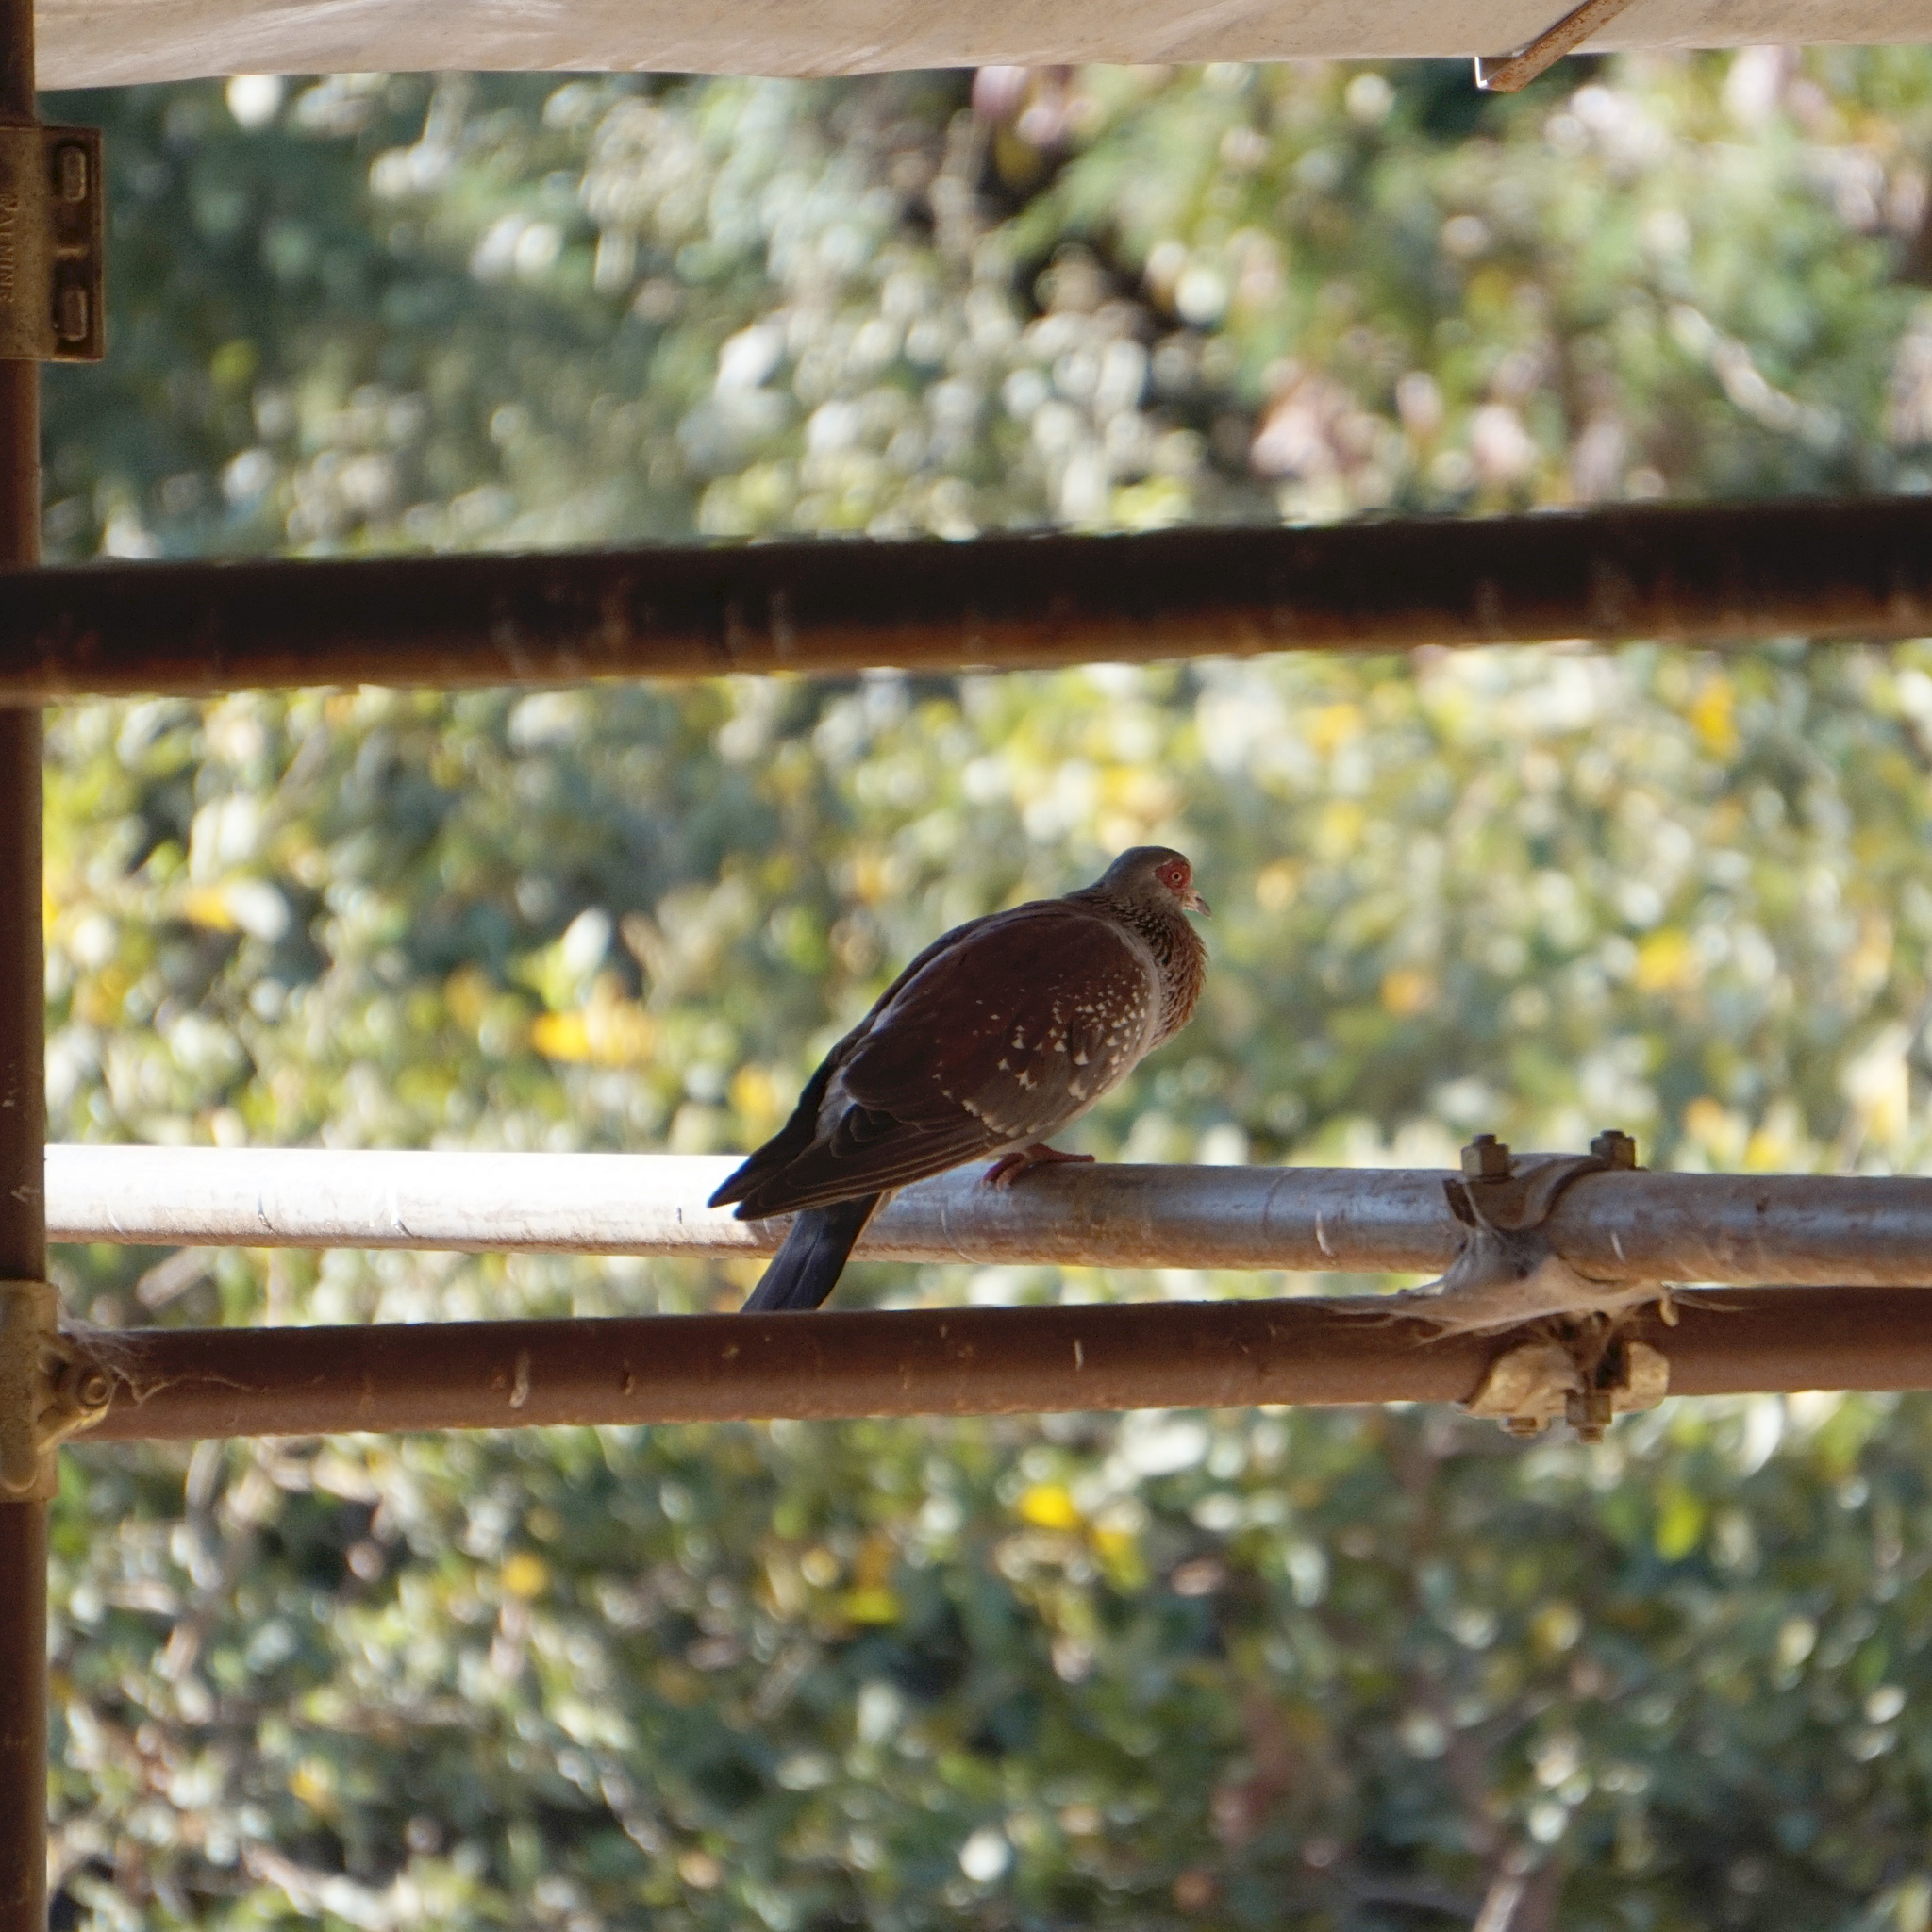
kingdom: Animalia
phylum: Chordata
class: Aves
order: Columbiformes
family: Columbidae
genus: Columba
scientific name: Columba guinea
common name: Speckled pigeon
